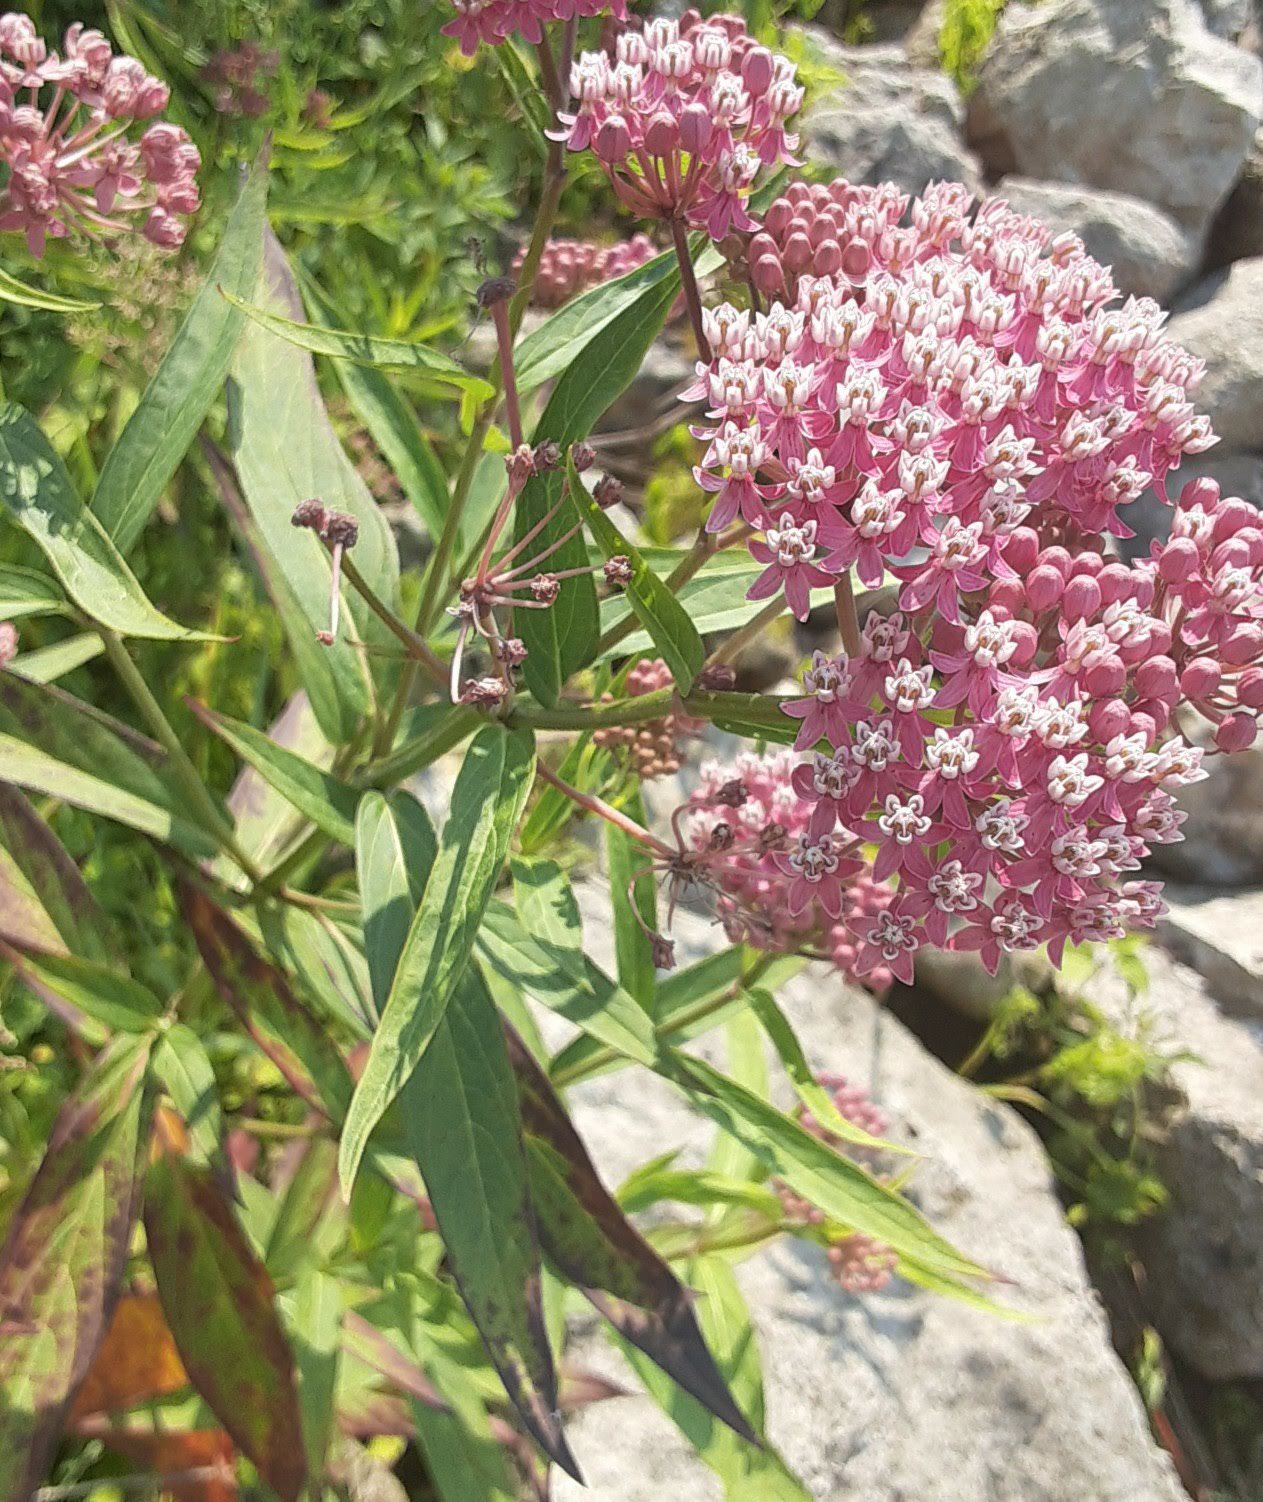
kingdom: Plantae
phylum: Tracheophyta
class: Magnoliopsida
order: Gentianales
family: Apocynaceae
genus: Asclepias
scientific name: Asclepias incarnata
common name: Swamp milkweed
